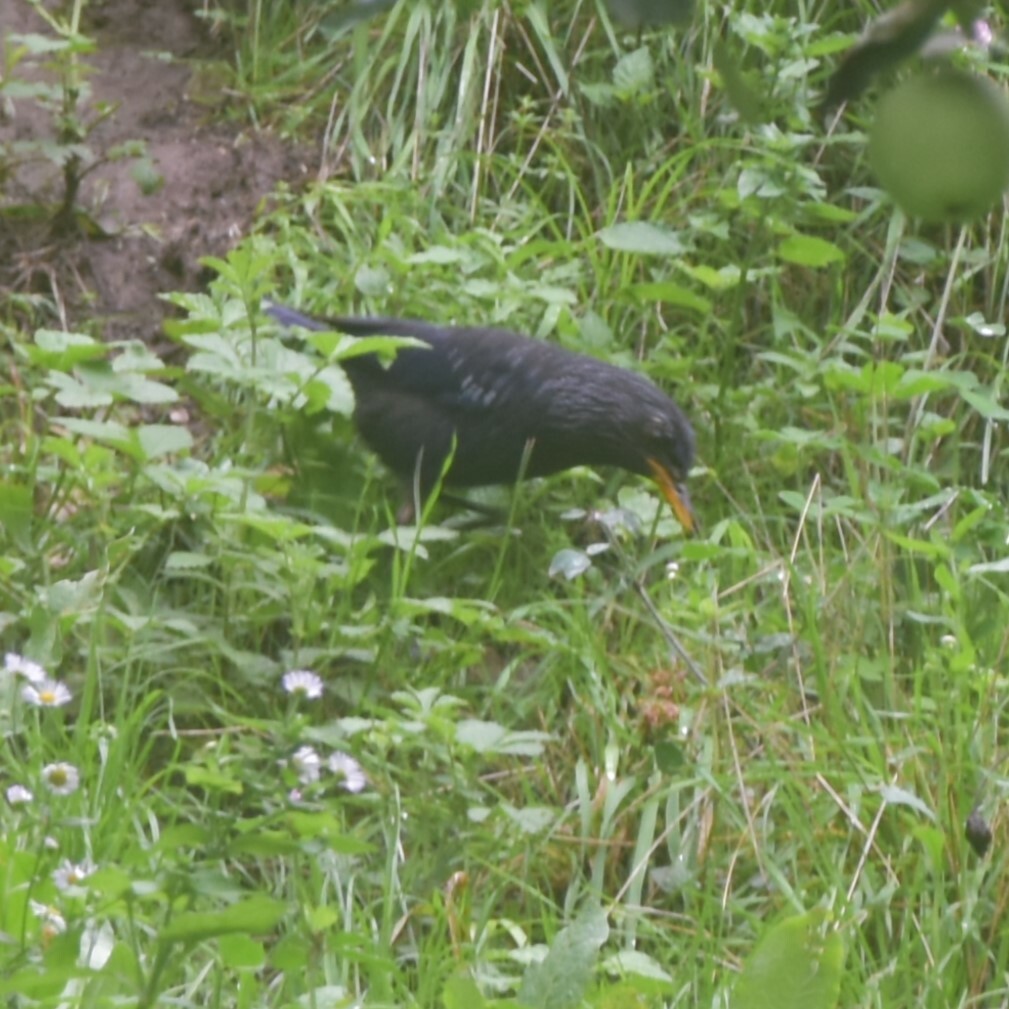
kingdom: Animalia
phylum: Chordata
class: Aves
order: Passeriformes
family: Muscicapidae
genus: Myophonus
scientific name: Myophonus caeruleus
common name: Blue whistling-thrush
